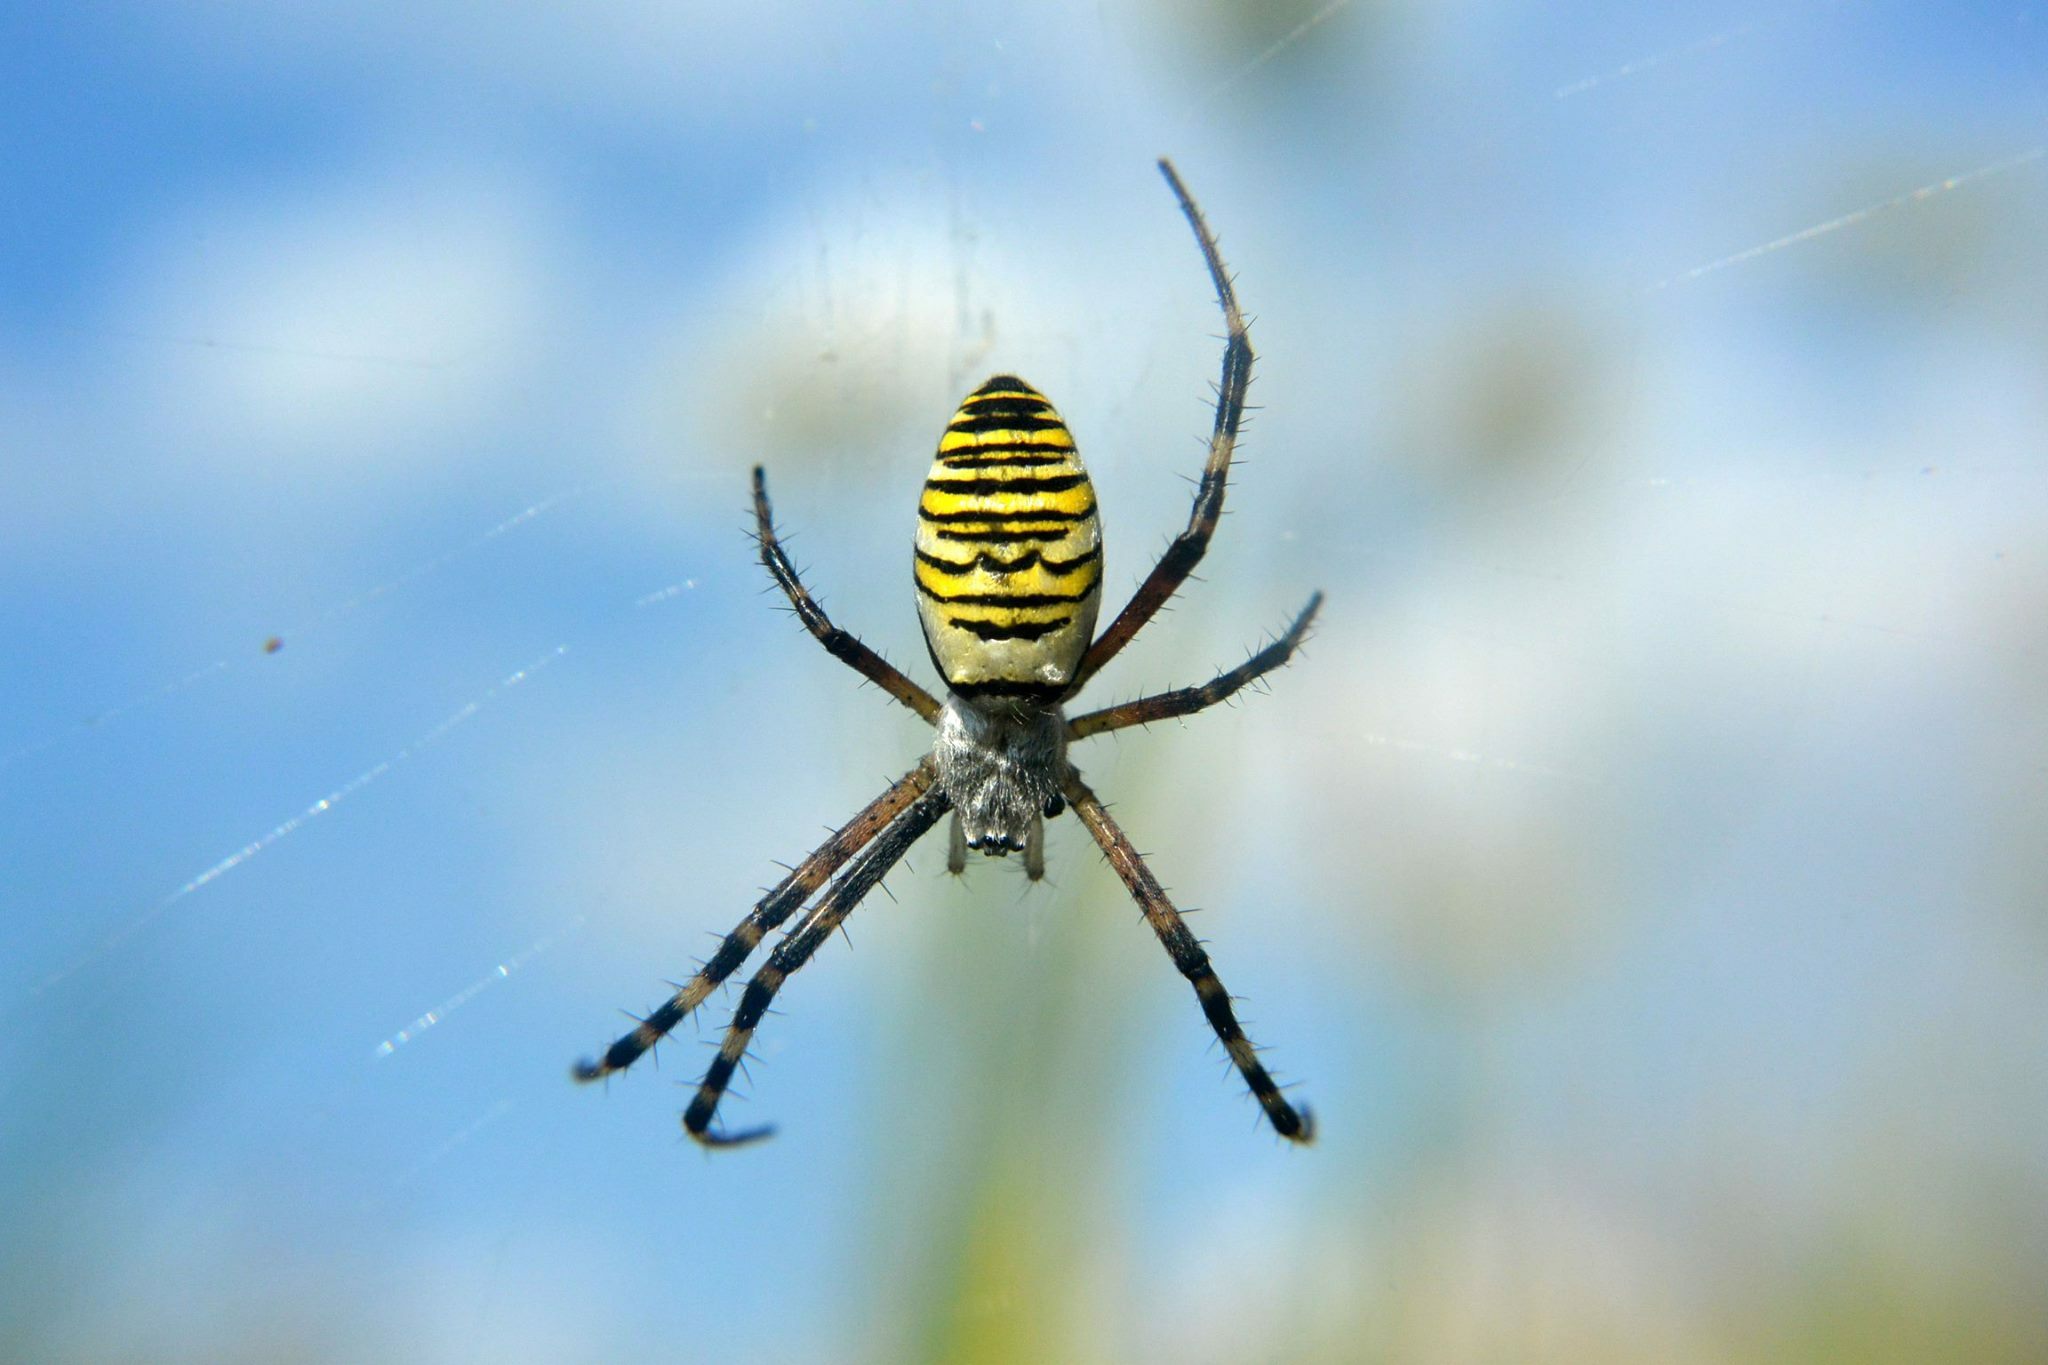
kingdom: Animalia
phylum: Arthropoda
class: Arachnida
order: Araneae
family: Araneidae
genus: Argiope
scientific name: Argiope bruennichi
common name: Wasp spider
